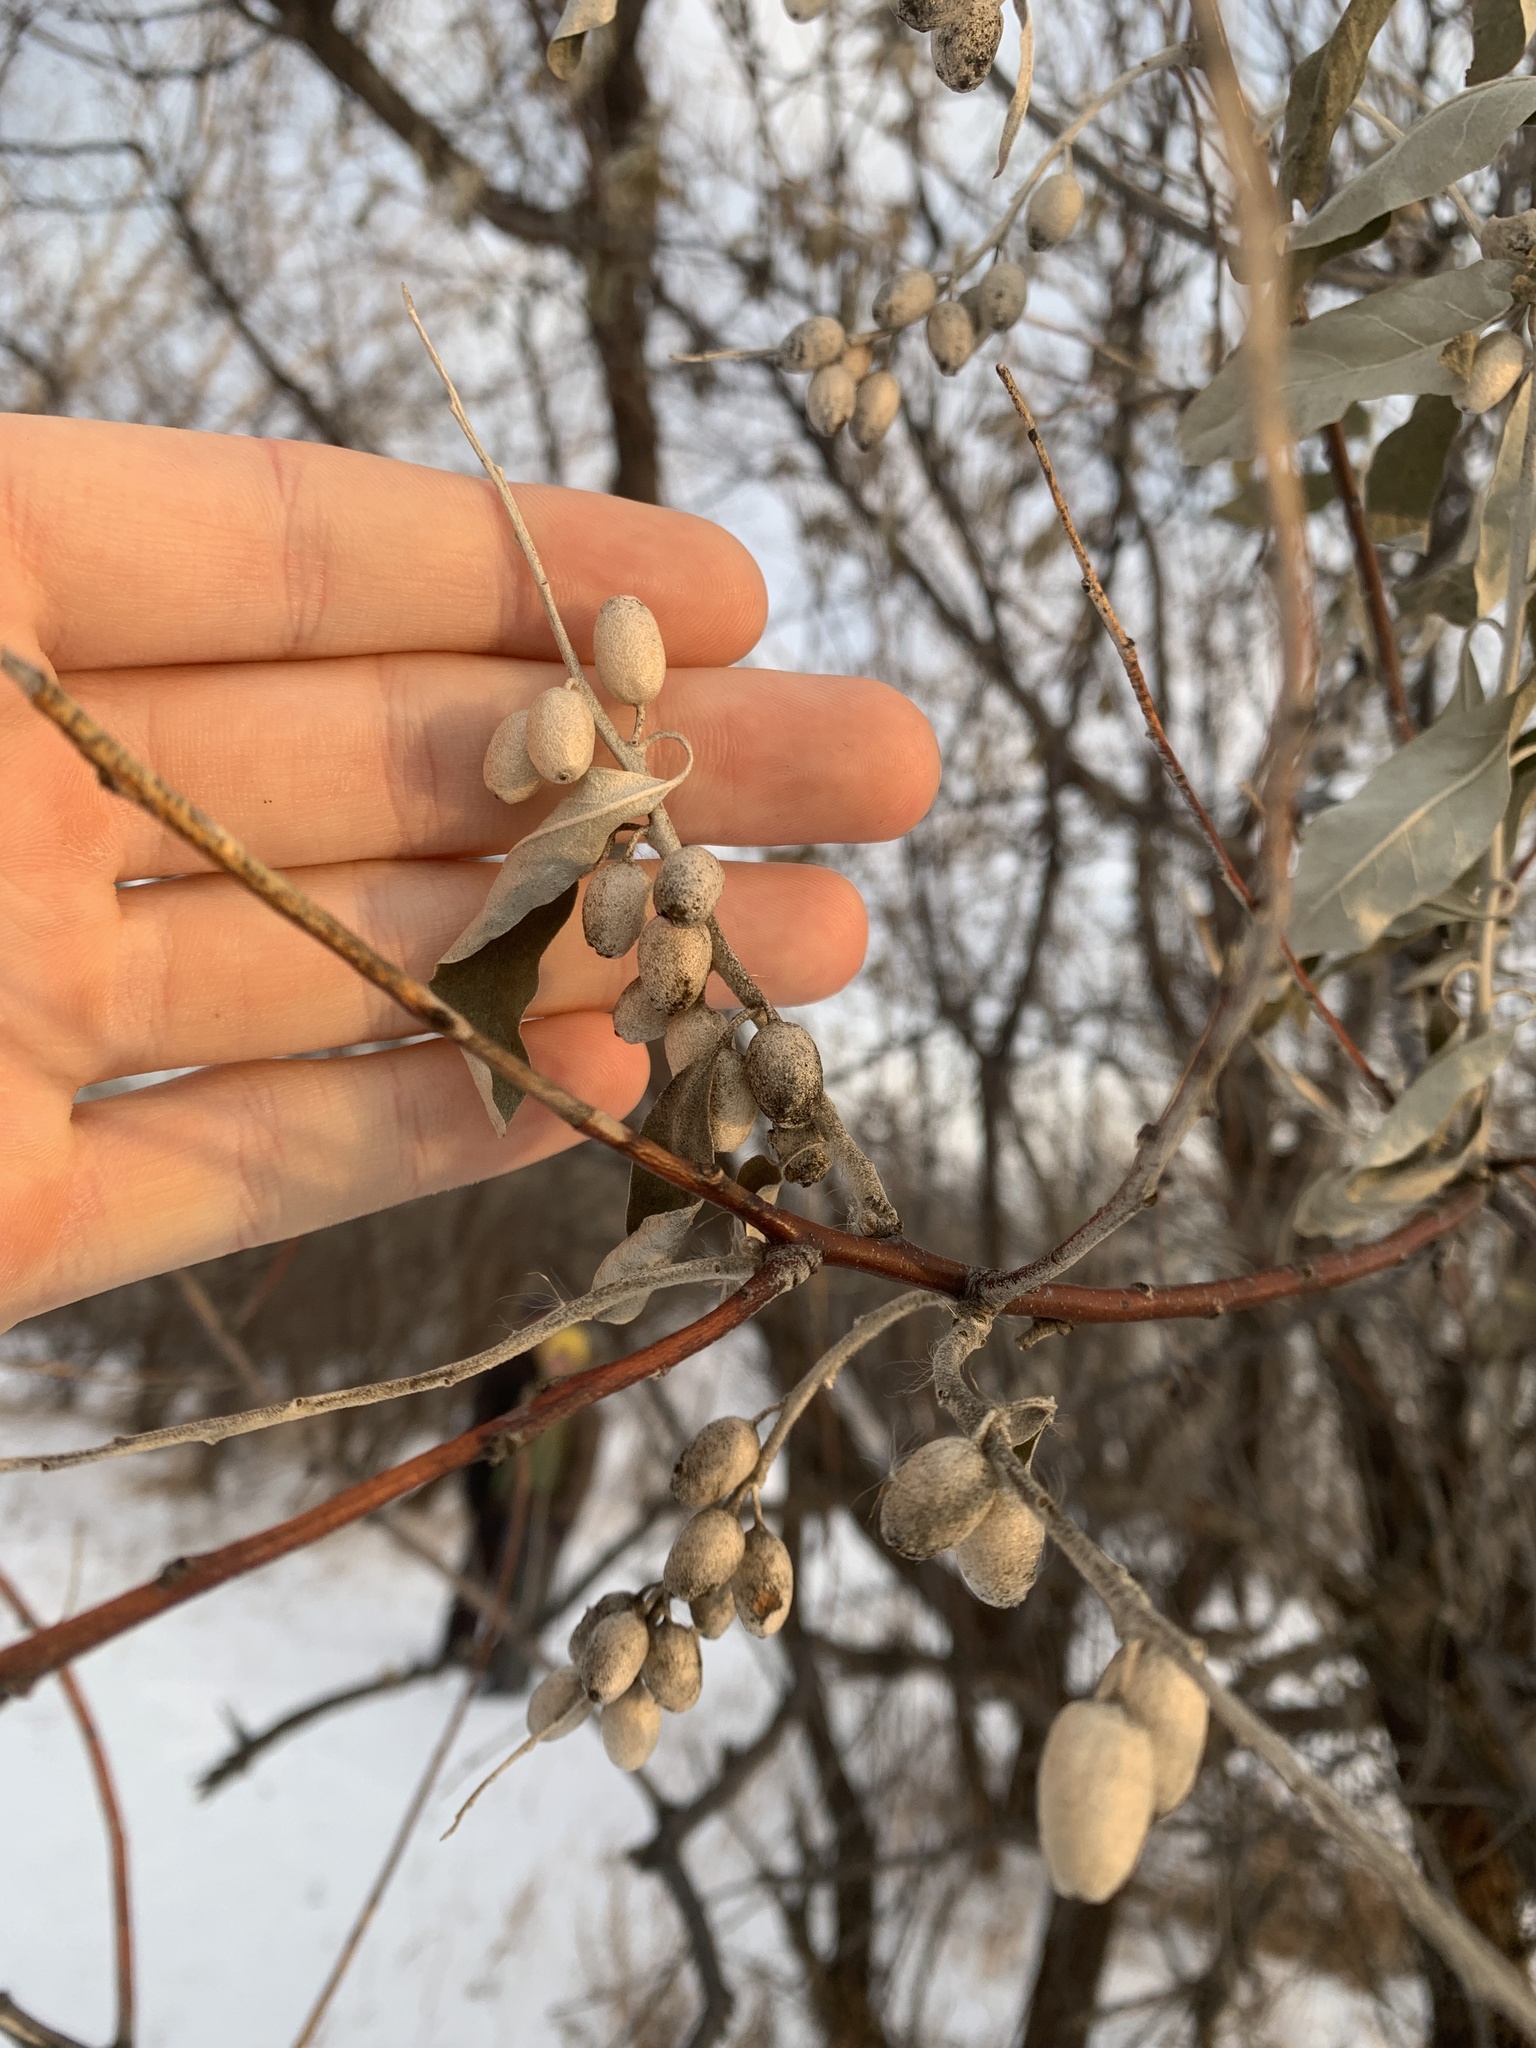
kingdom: Plantae
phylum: Tracheophyta
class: Magnoliopsida
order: Rosales
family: Elaeagnaceae
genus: Elaeagnus
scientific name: Elaeagnus angustifolia
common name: Russian olive
